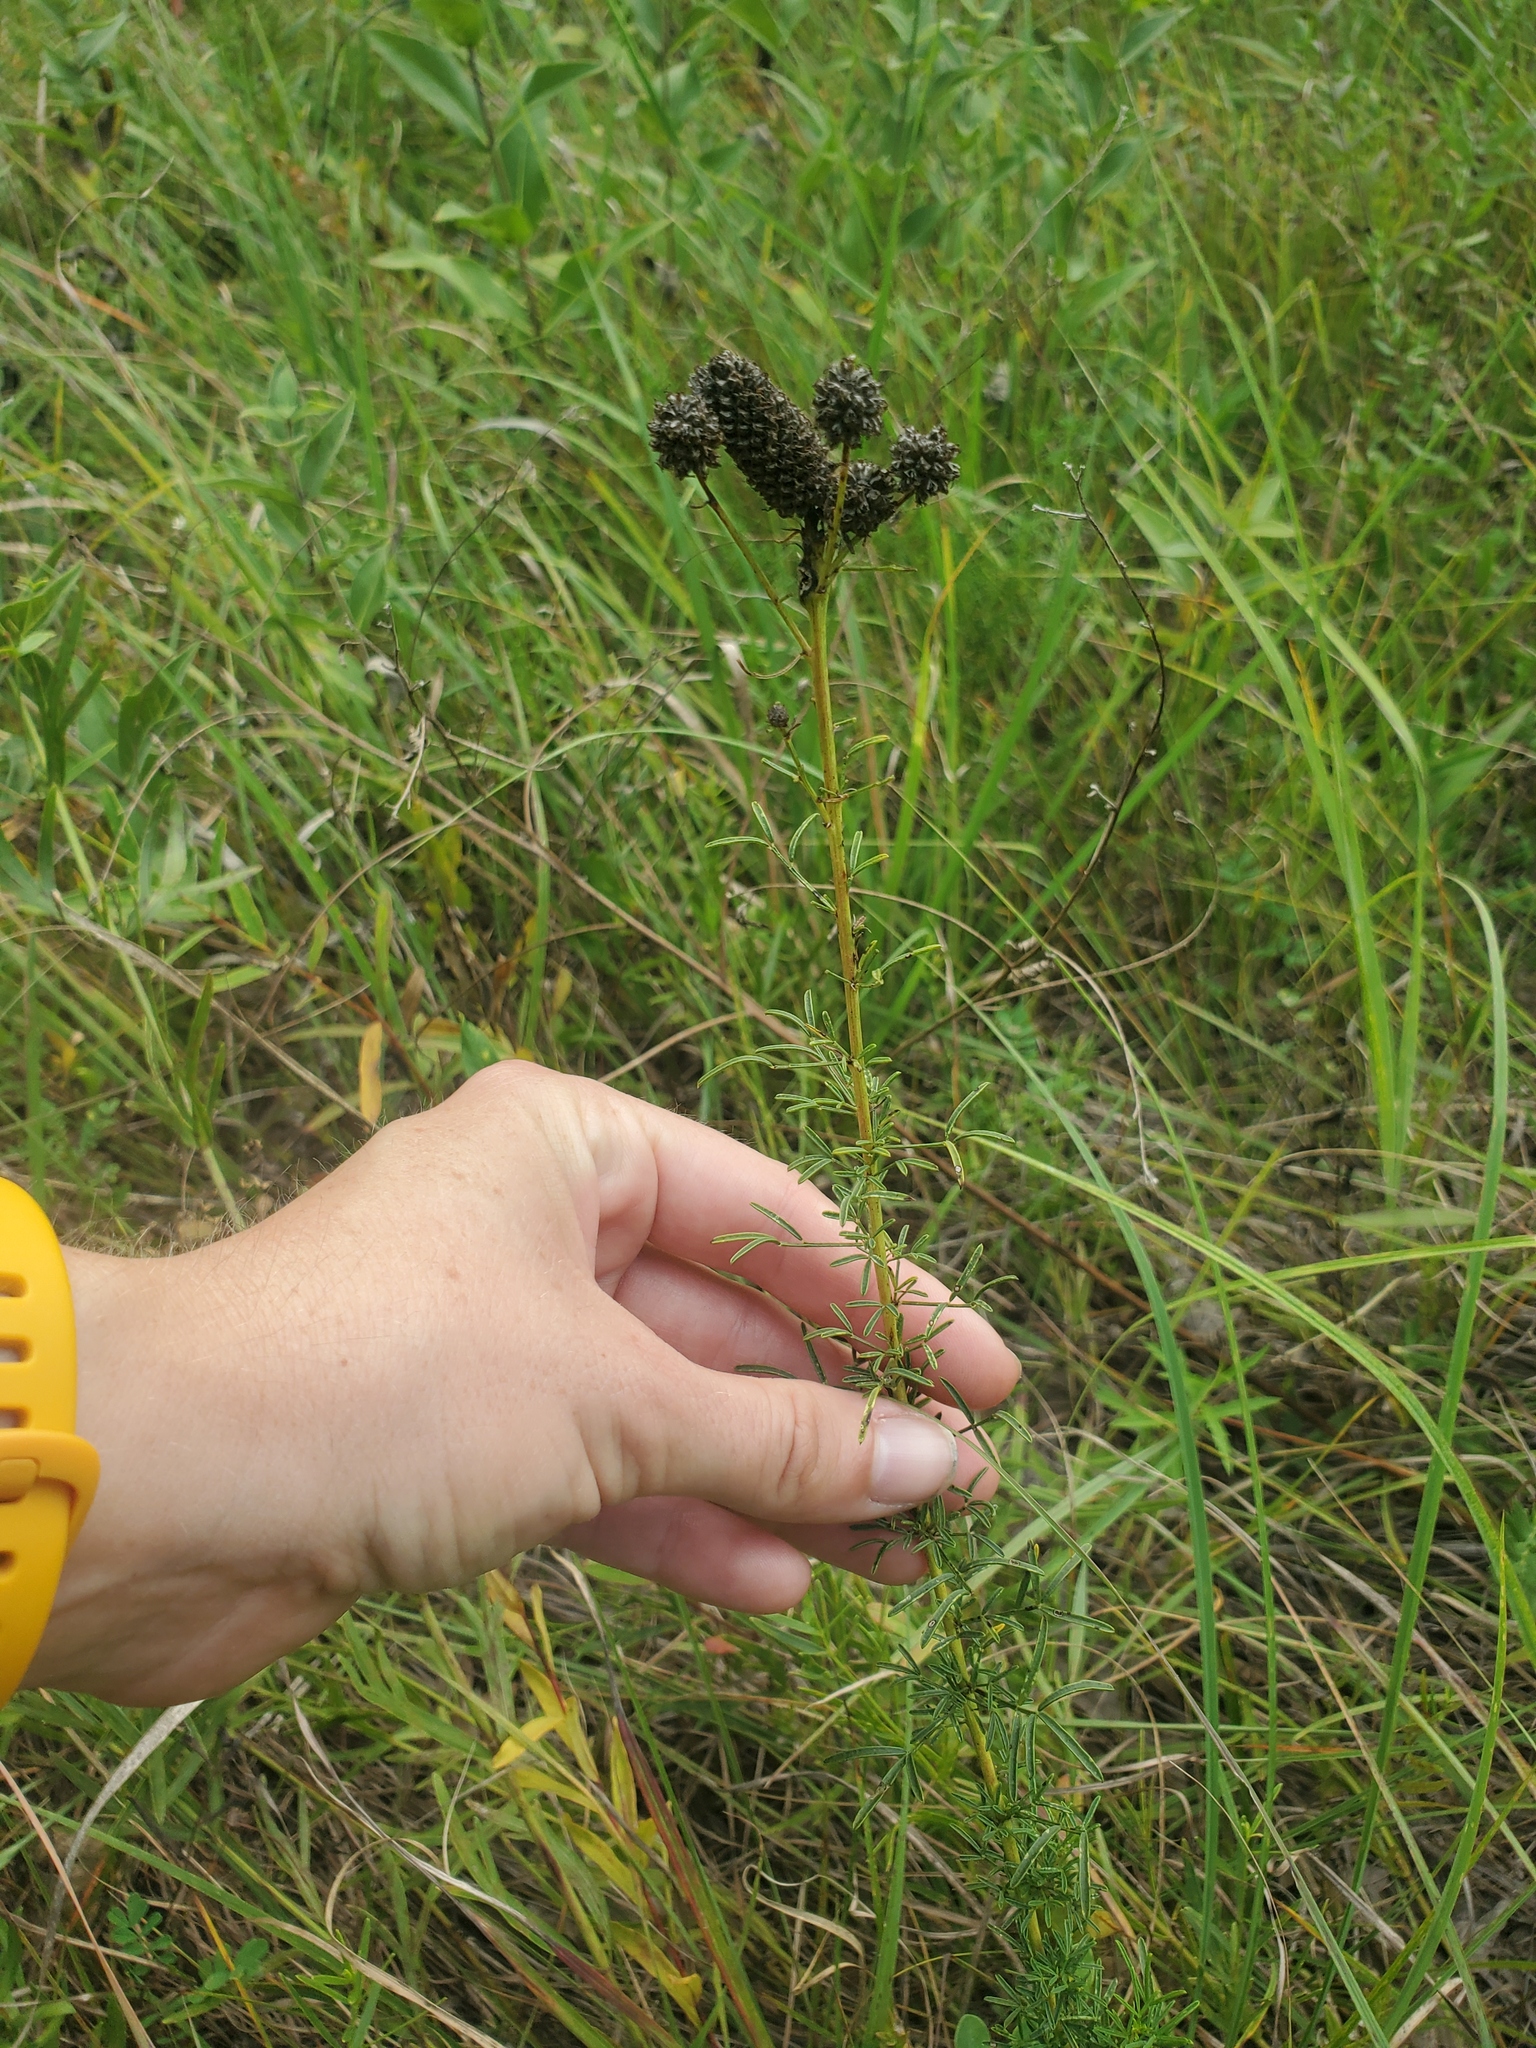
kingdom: Plantae
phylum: Tracheophyta
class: Magnoliopsida
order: Fabales
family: Fabaceae
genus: Dalea
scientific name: Dalea purpurea
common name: Purple prairie-clover
